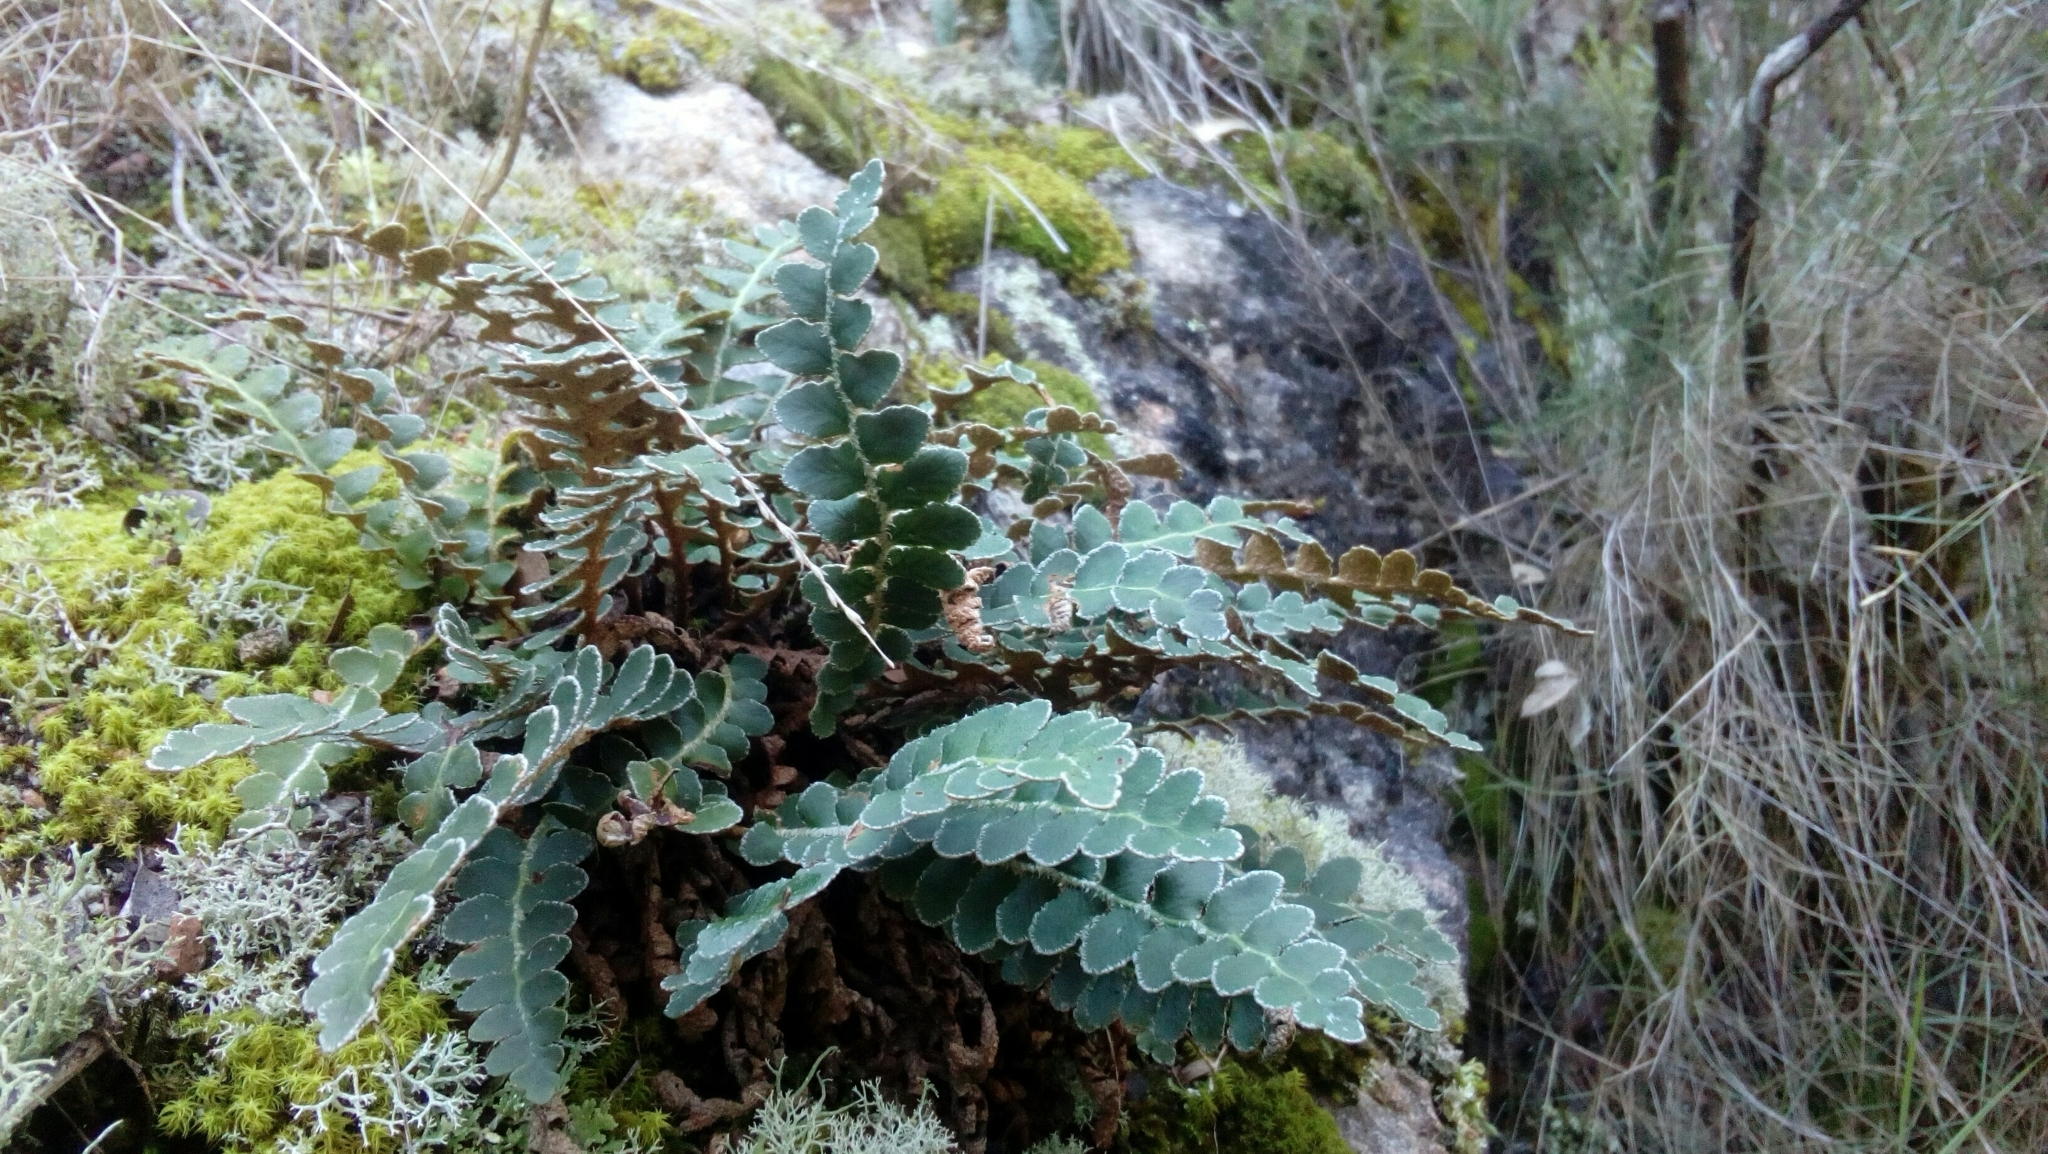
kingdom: Plantae
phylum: Tracheophyta
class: Polypodiopsida
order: Polypodiales
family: Aspleniaceae
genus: Asplenium
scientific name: Asplenium ceterach
